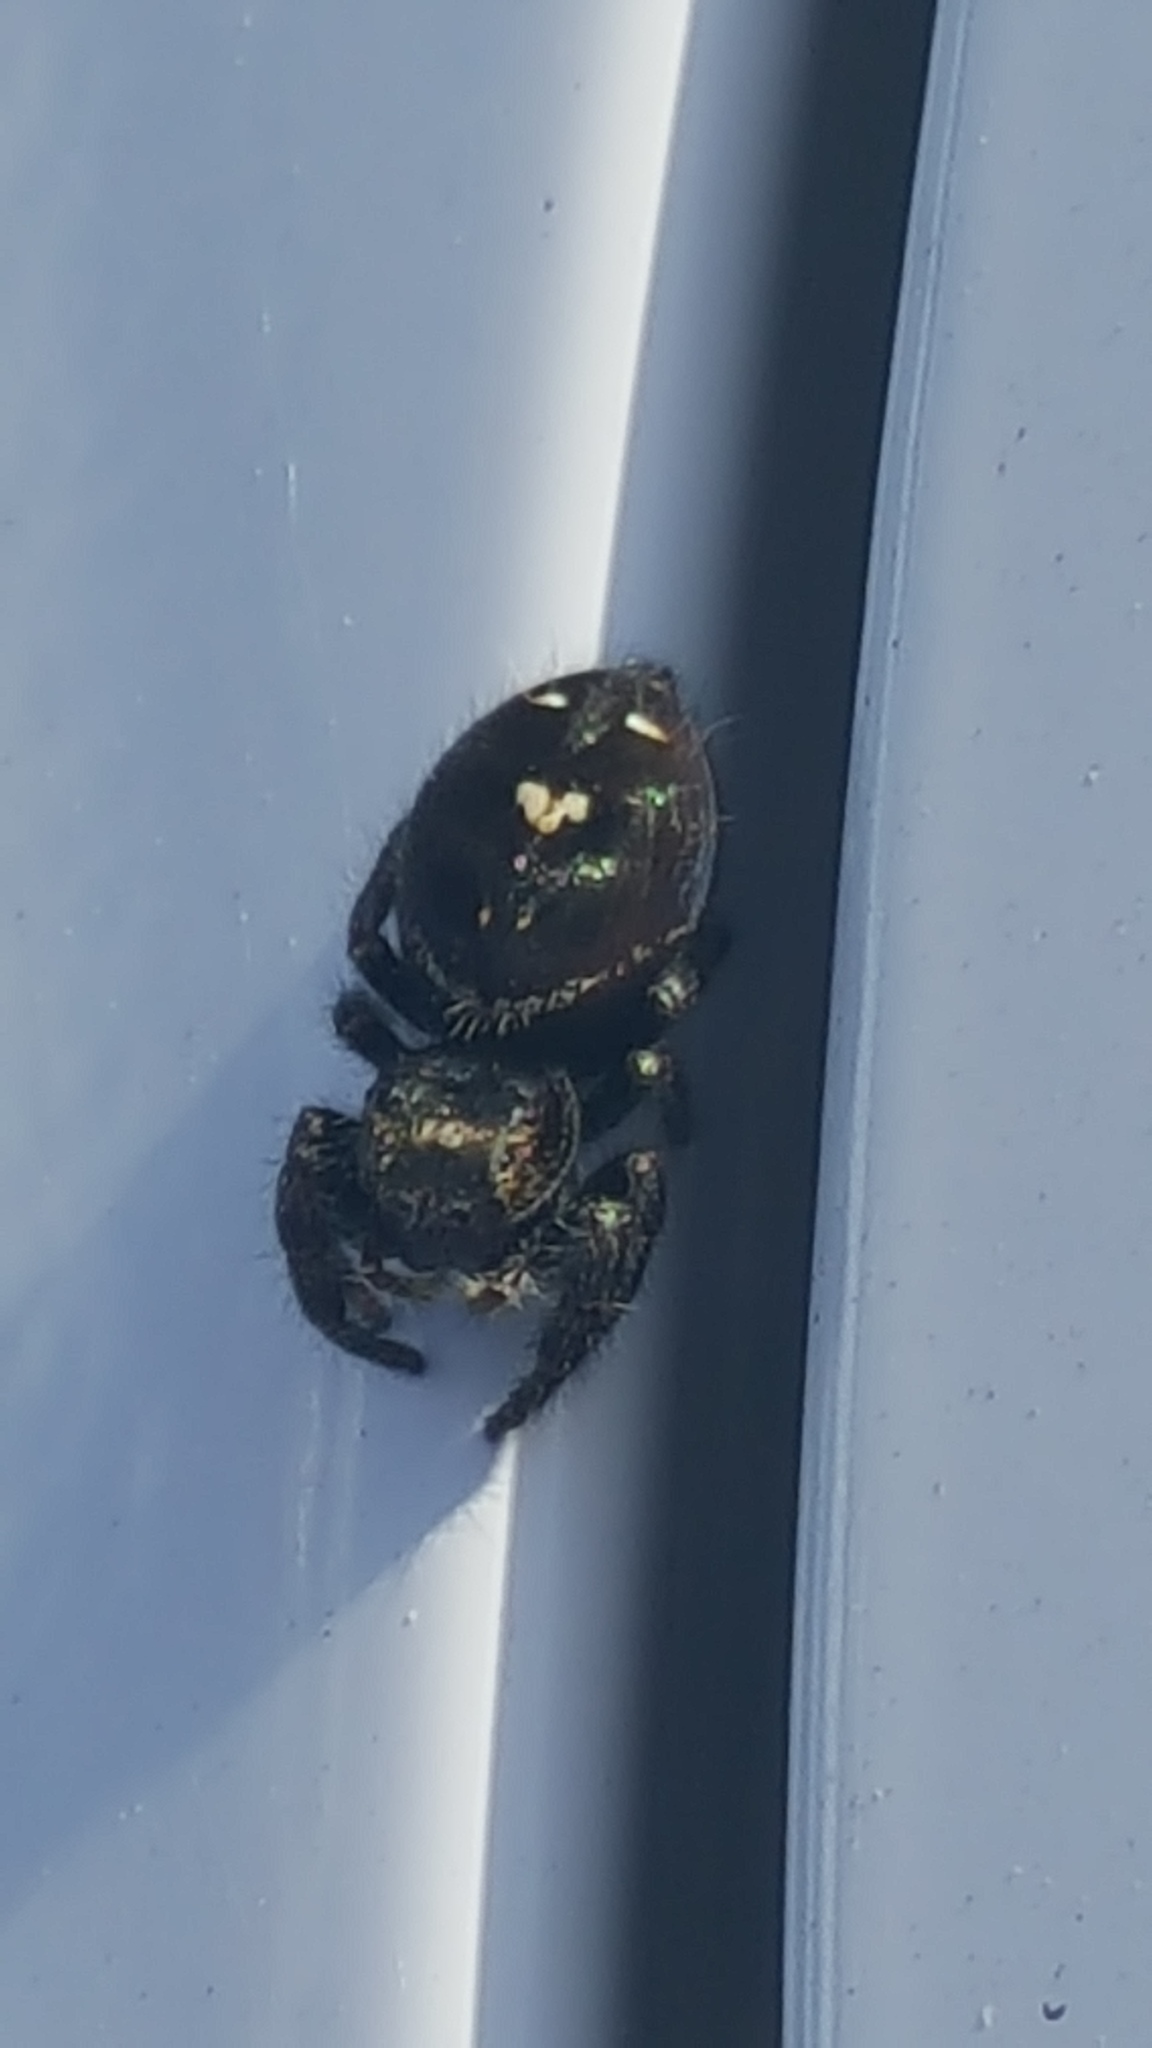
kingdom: Animalia
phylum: Arthropoda
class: Arachnida
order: Araneae
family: Salticidae
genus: Phidippus
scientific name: Phidippus audax
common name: Bold jumper
